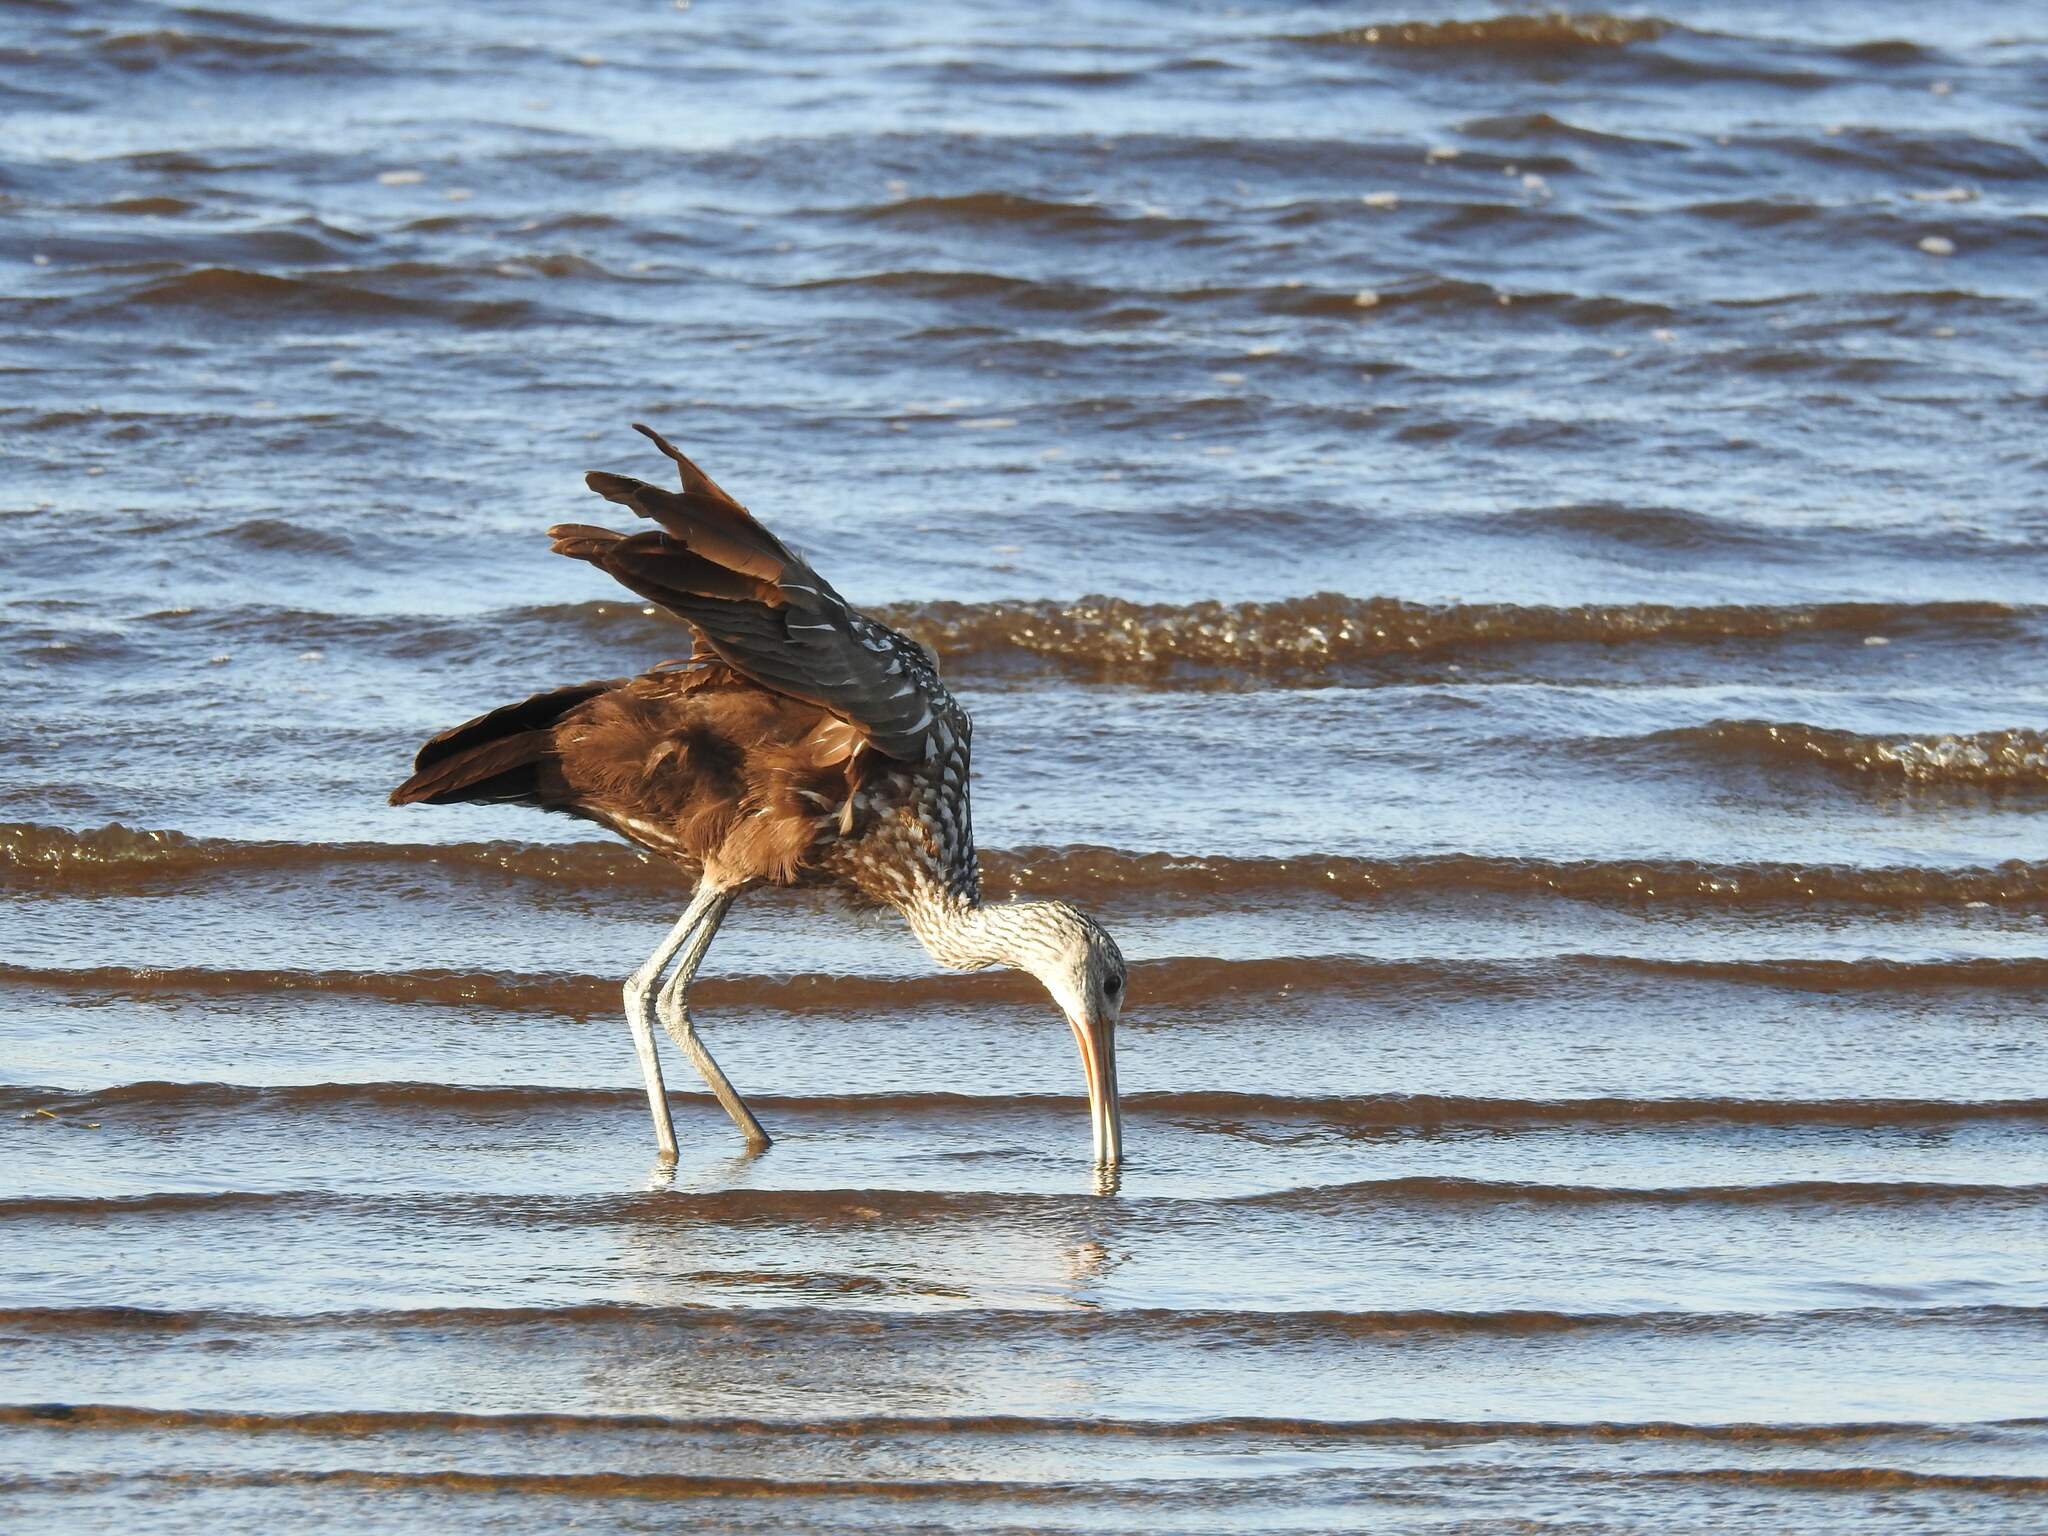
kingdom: Animalia
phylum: Chordata
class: Aves
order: Gruiformes
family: Aramidae
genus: Aramus
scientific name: Aramus guarauna
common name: Limpkin
